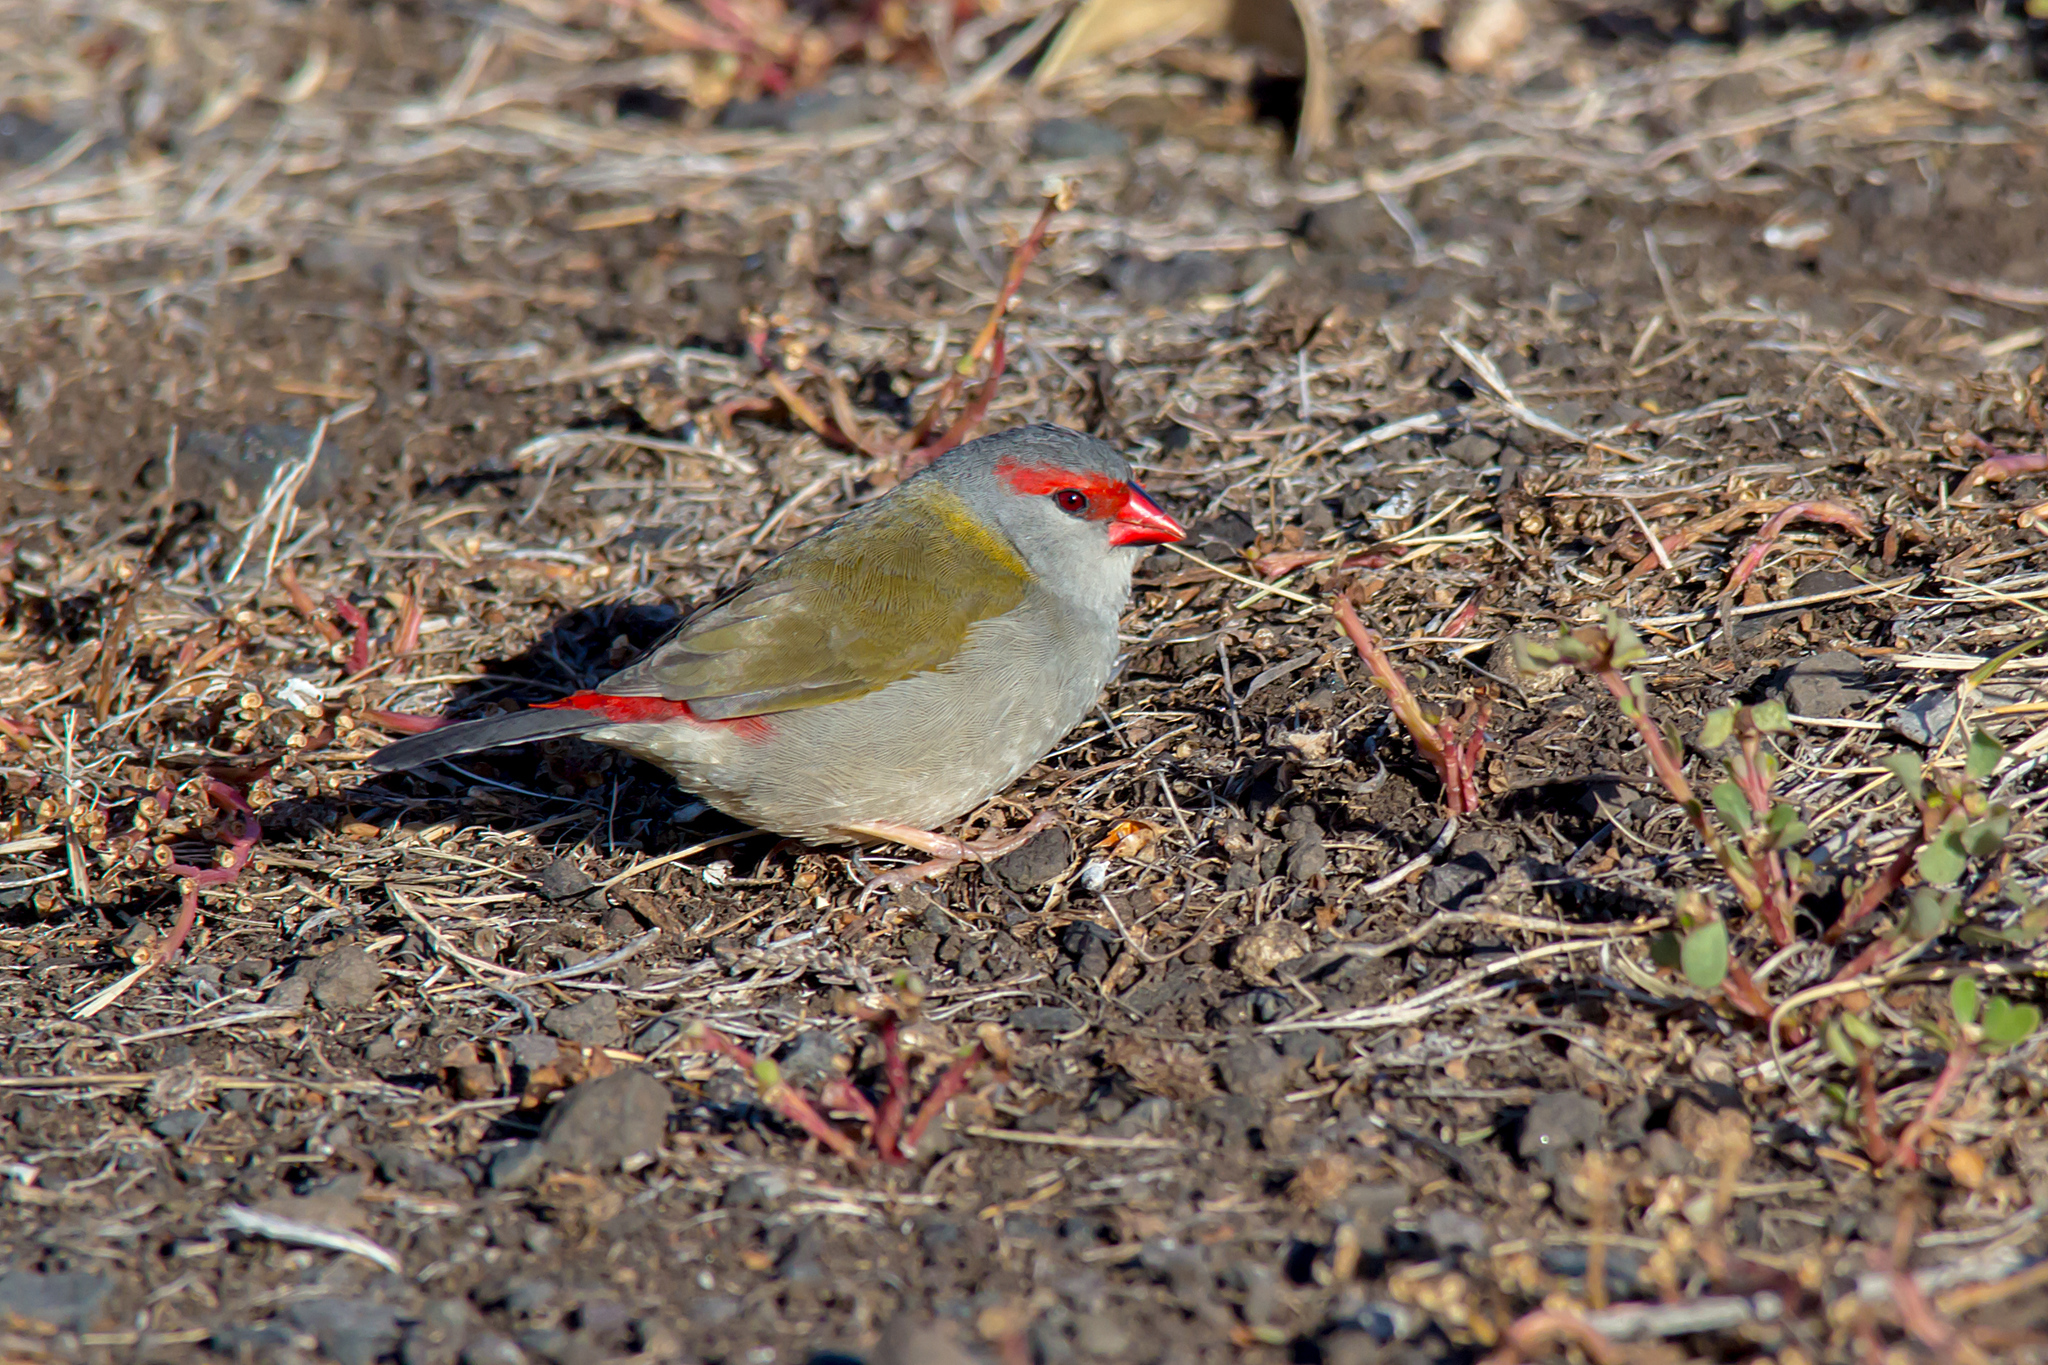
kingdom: Animalia
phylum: Chordata
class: Aves
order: Passeriformes
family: Estrildidae
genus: Neochmia
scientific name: Neochmia temporalis
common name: Red-browed finch
